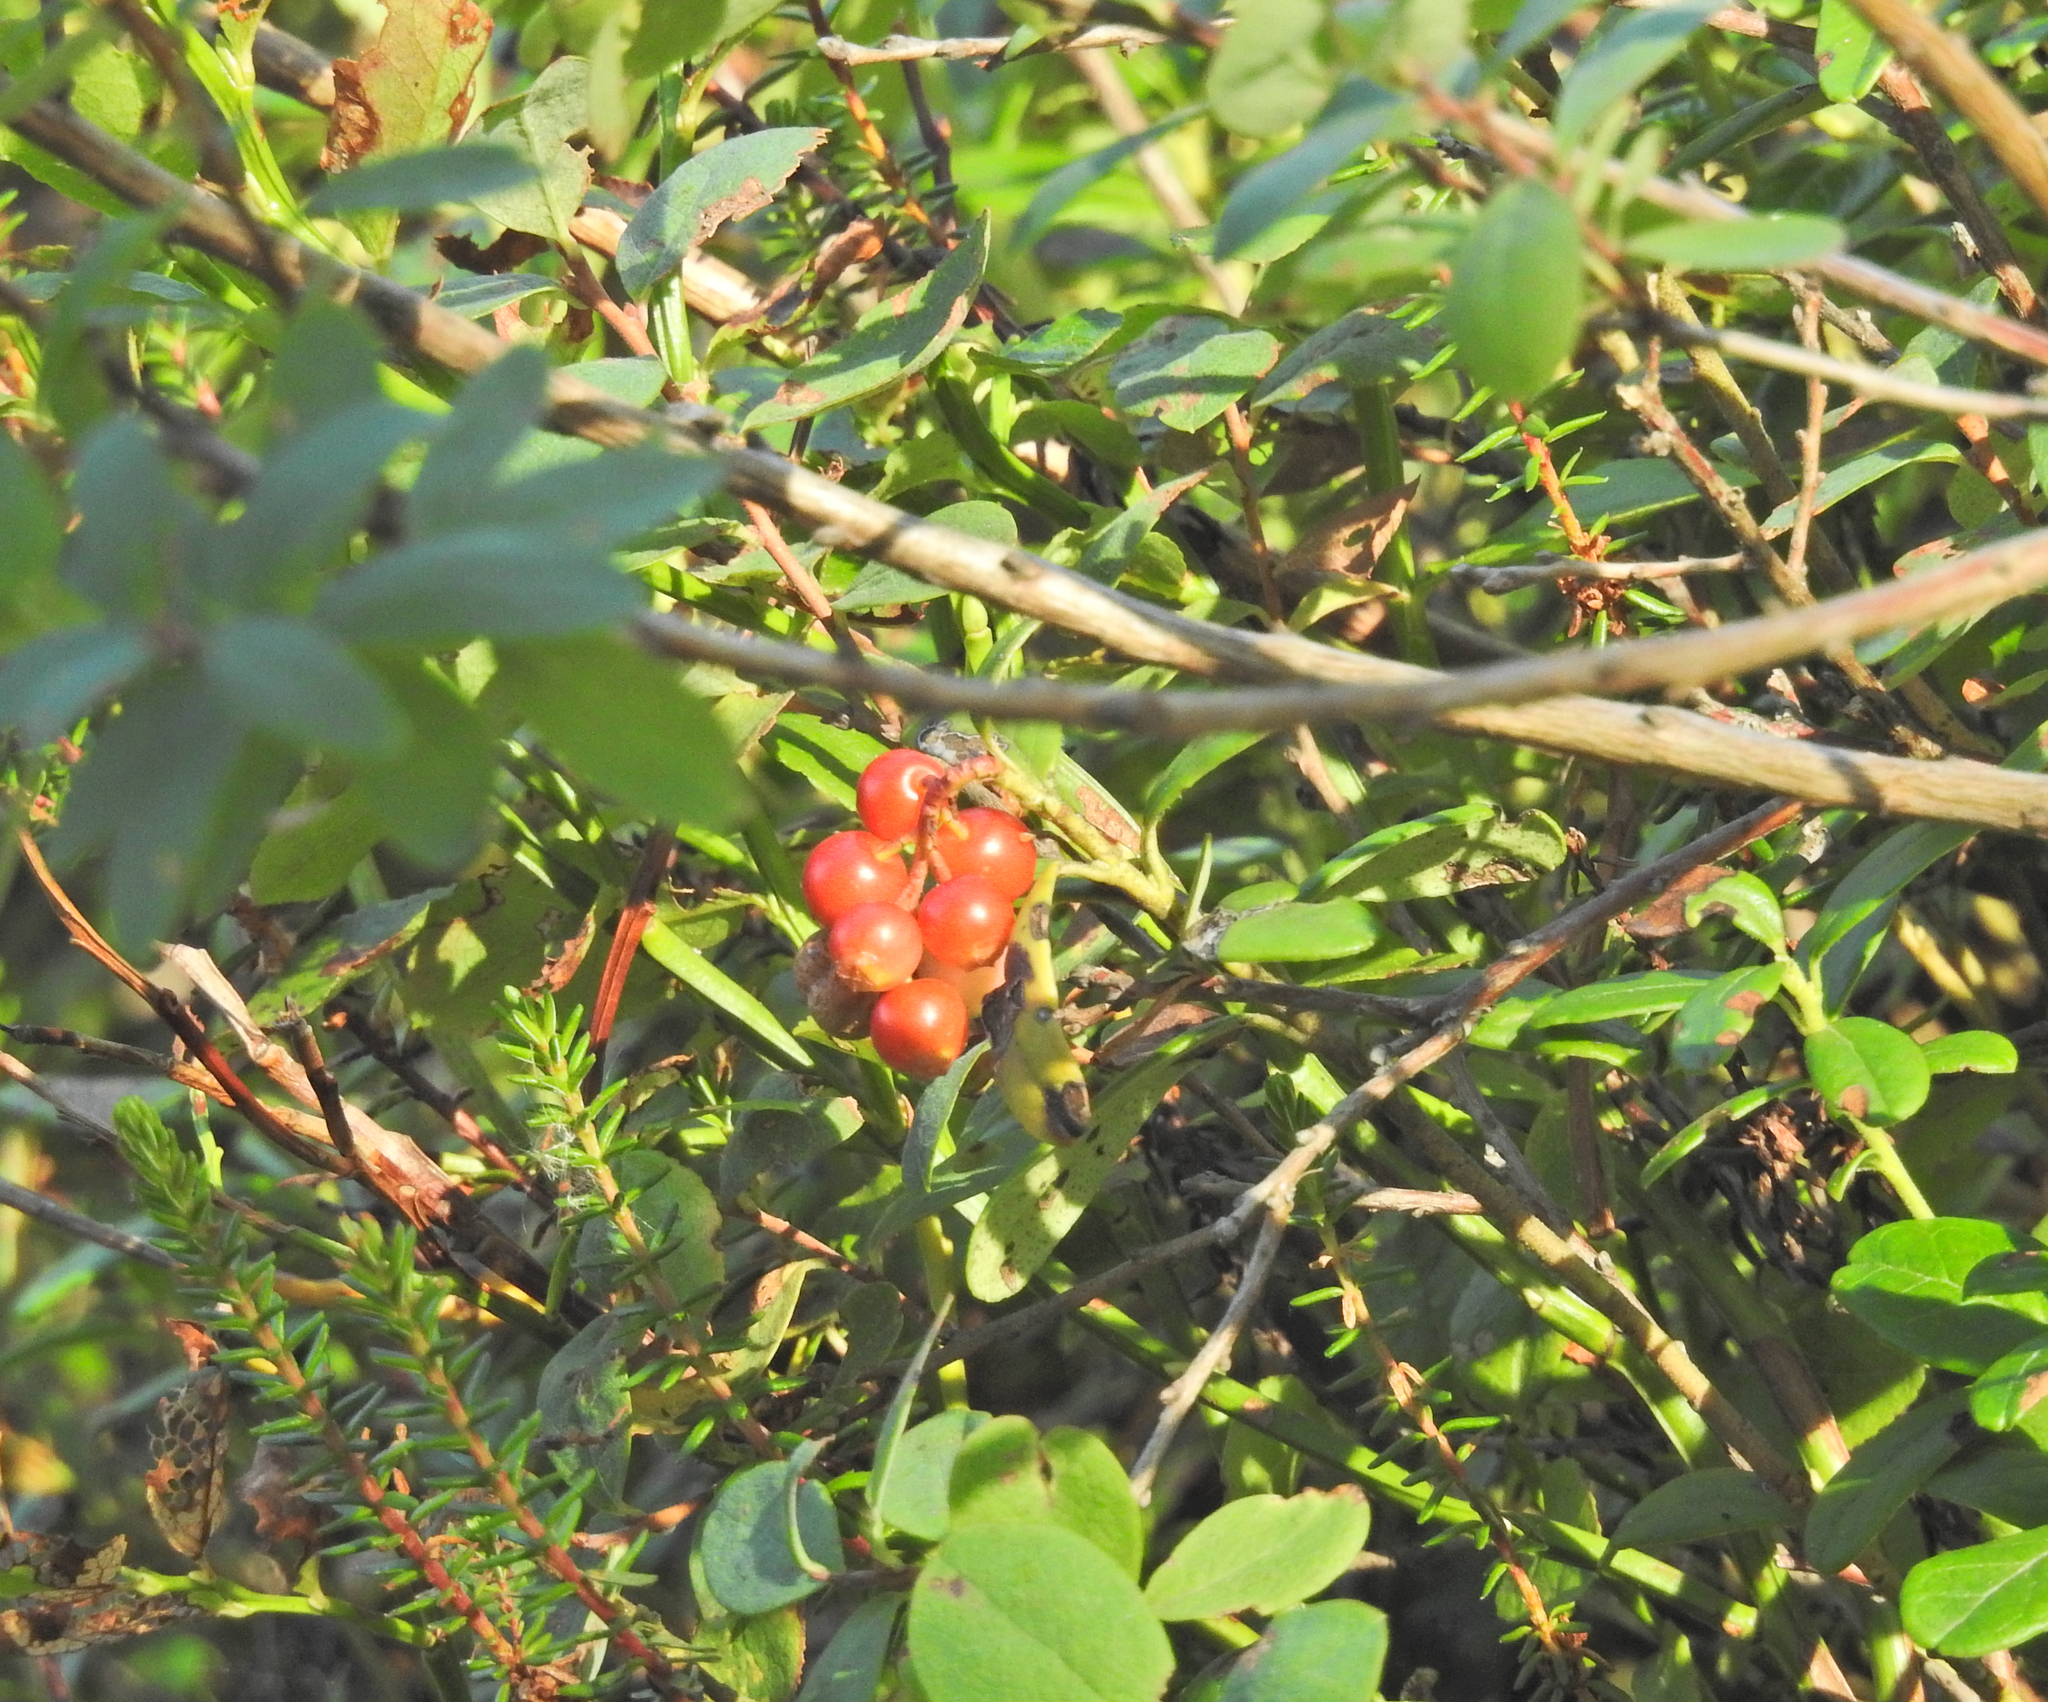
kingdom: Plantae
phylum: Tracheophyta
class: Magnoliopsida
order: Ericales
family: Ericaceae
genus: Vaccinium
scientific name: Vaccinium vitis-idaea
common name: Cowberry
